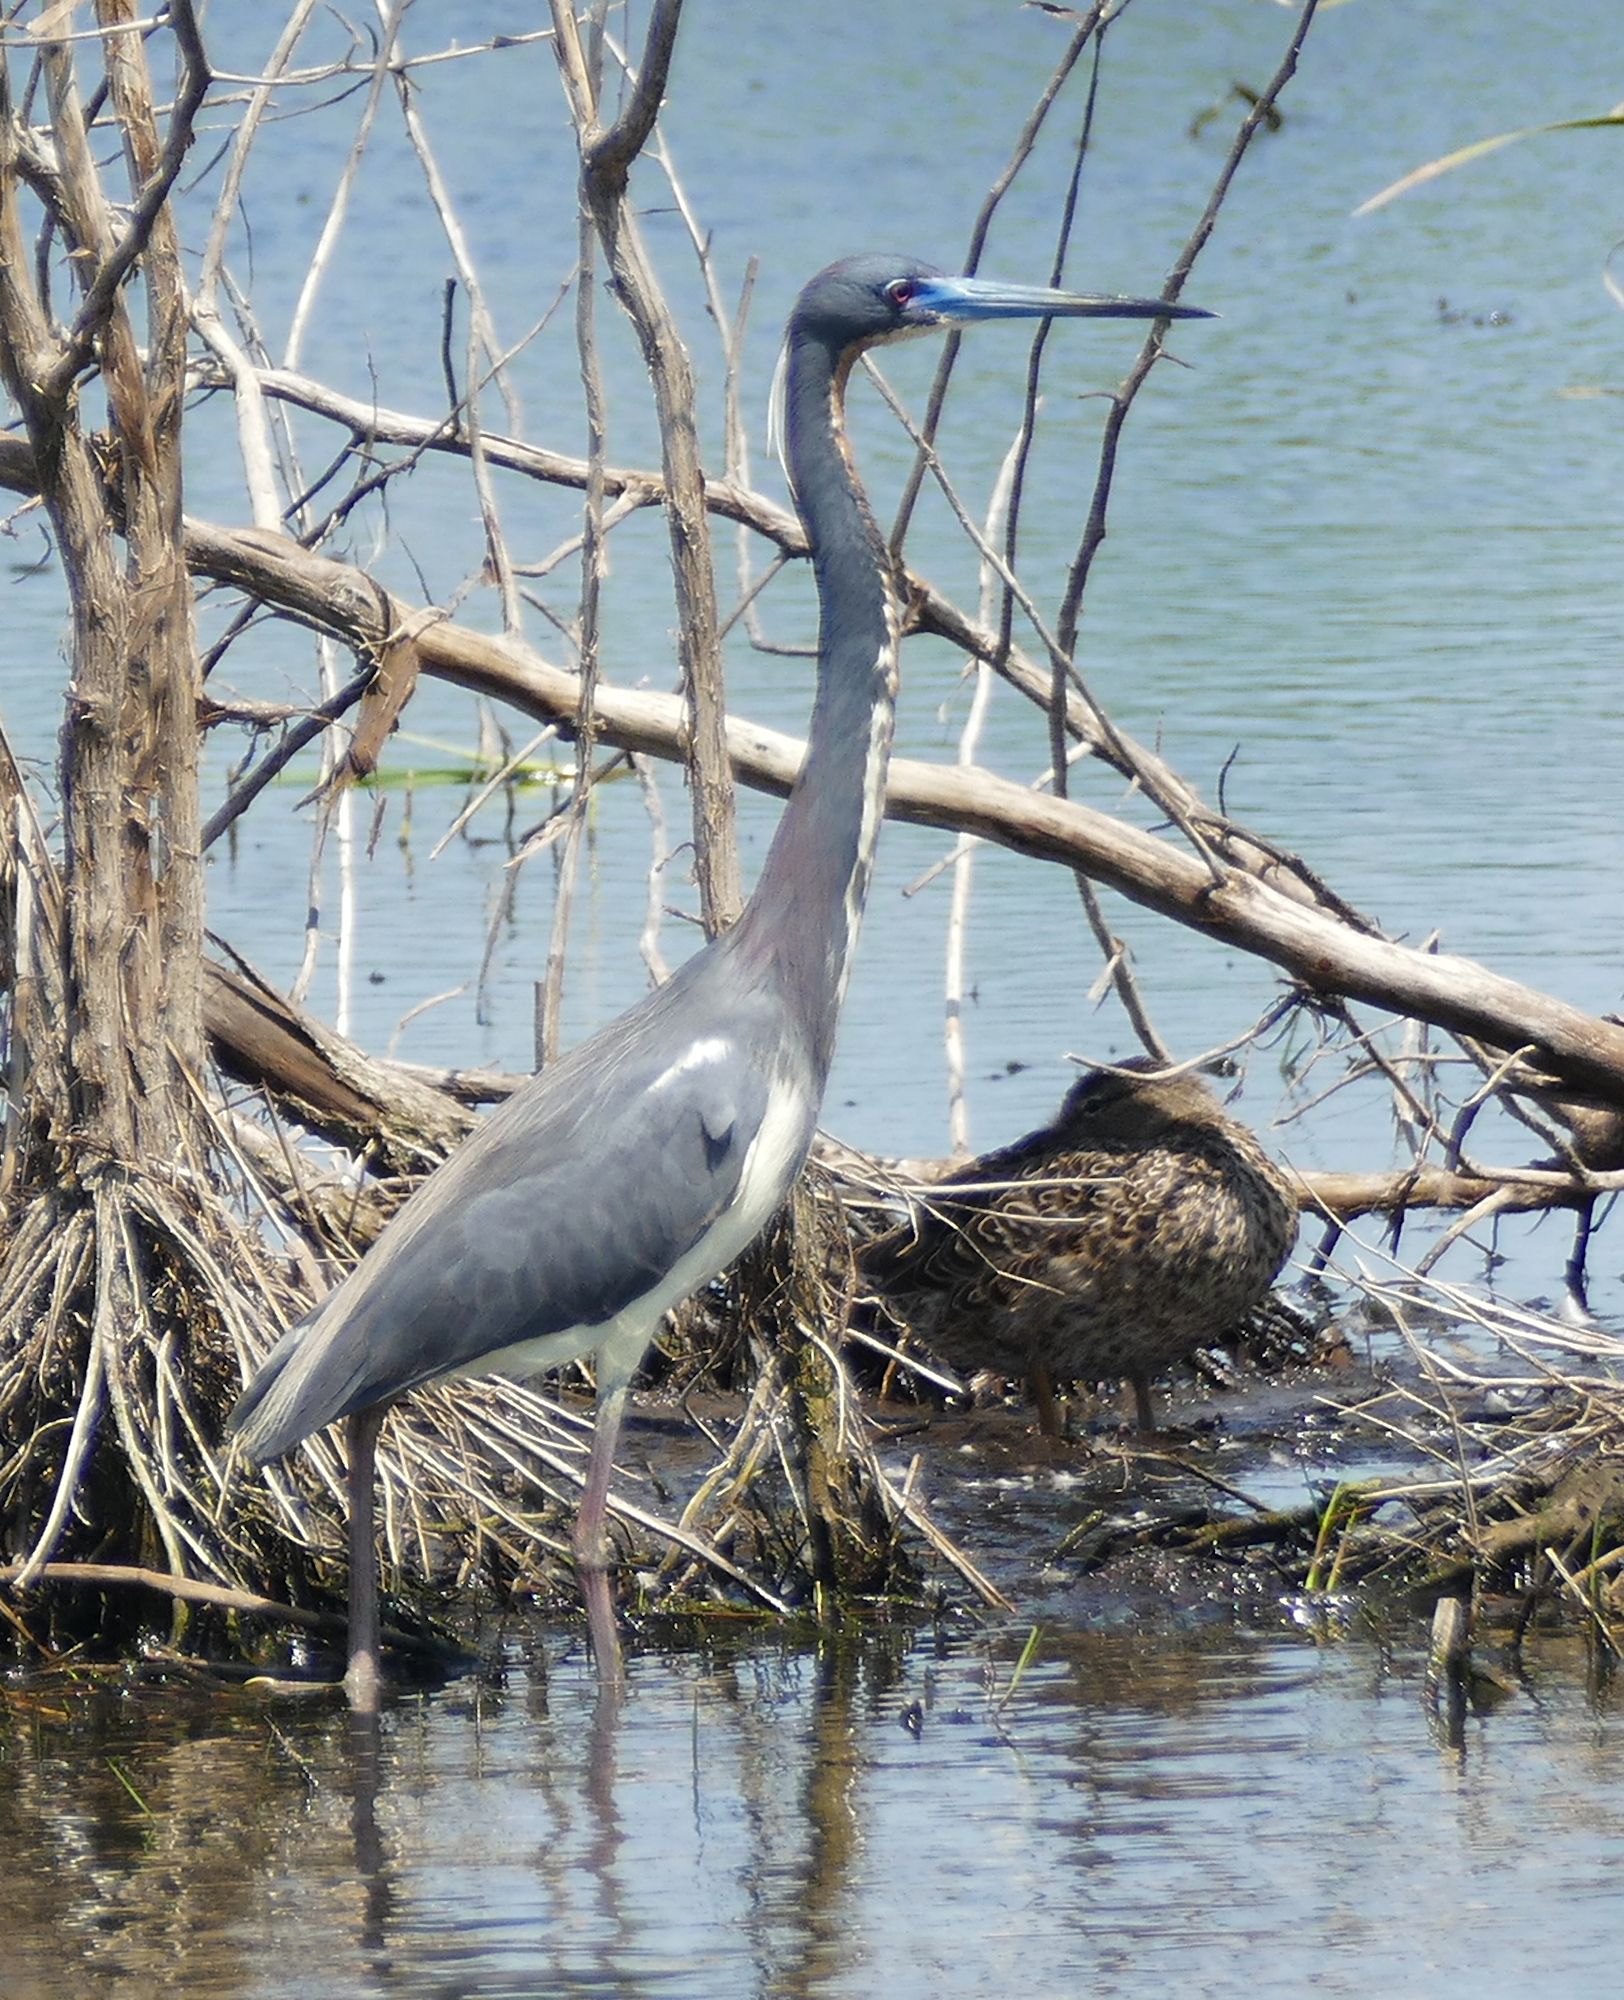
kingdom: Animalia
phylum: Chordata
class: Aves
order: Pelecaniformes
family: Ardeidae
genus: Egretta
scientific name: Egretta tricolor
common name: Tricolored heron
